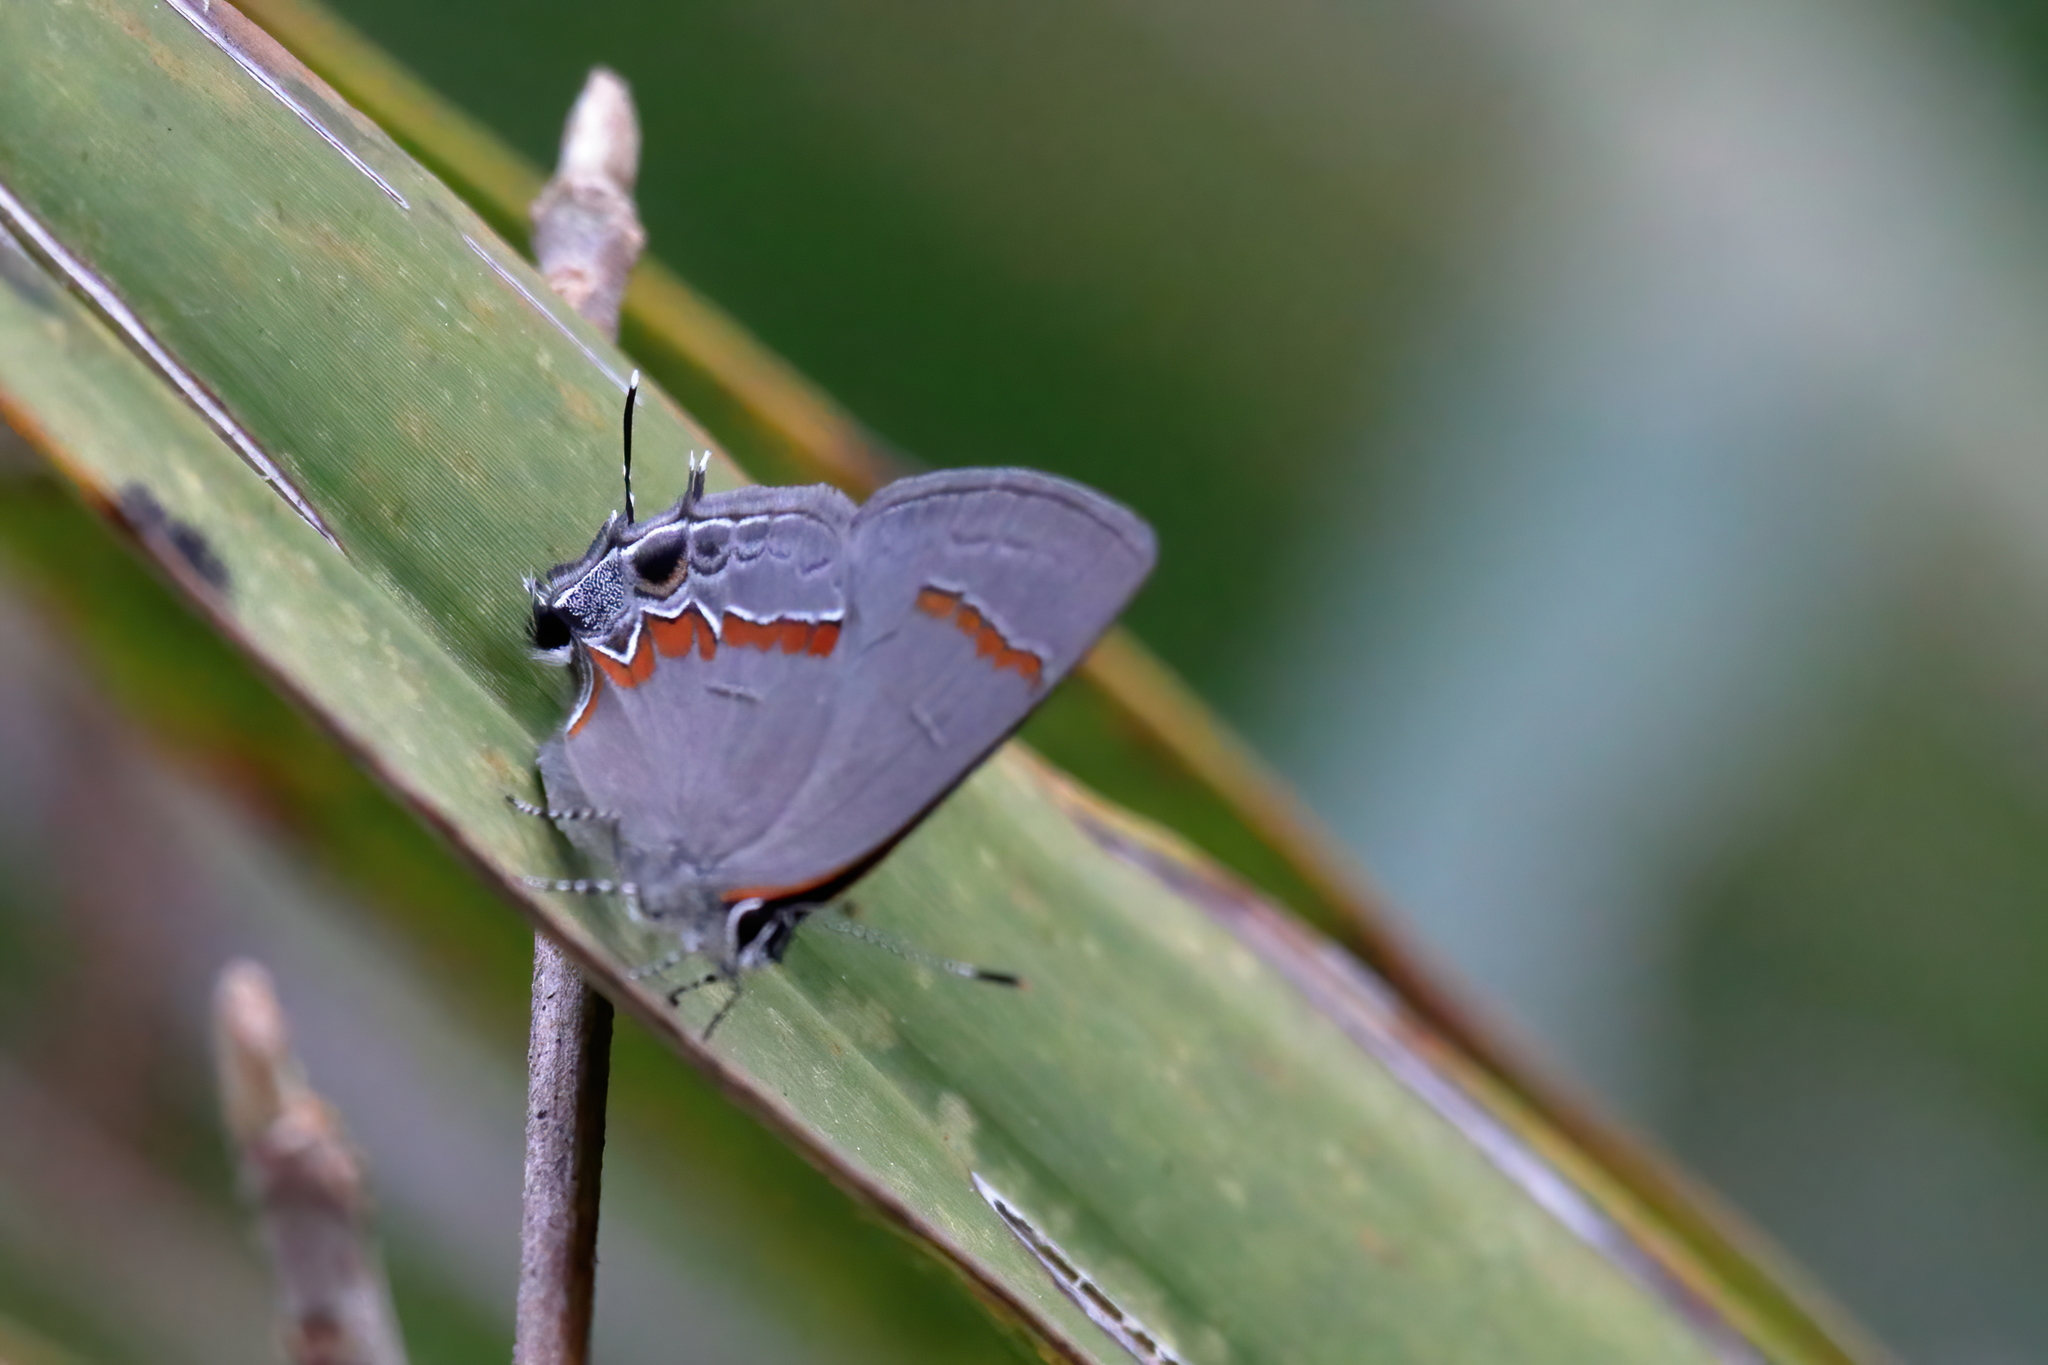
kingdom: Animalia
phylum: Arthropoda
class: Insecta
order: Lepidoptera
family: Lycaenidae
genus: Calycopis
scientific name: Calycopis cecrops
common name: Red-banded hairstreak
